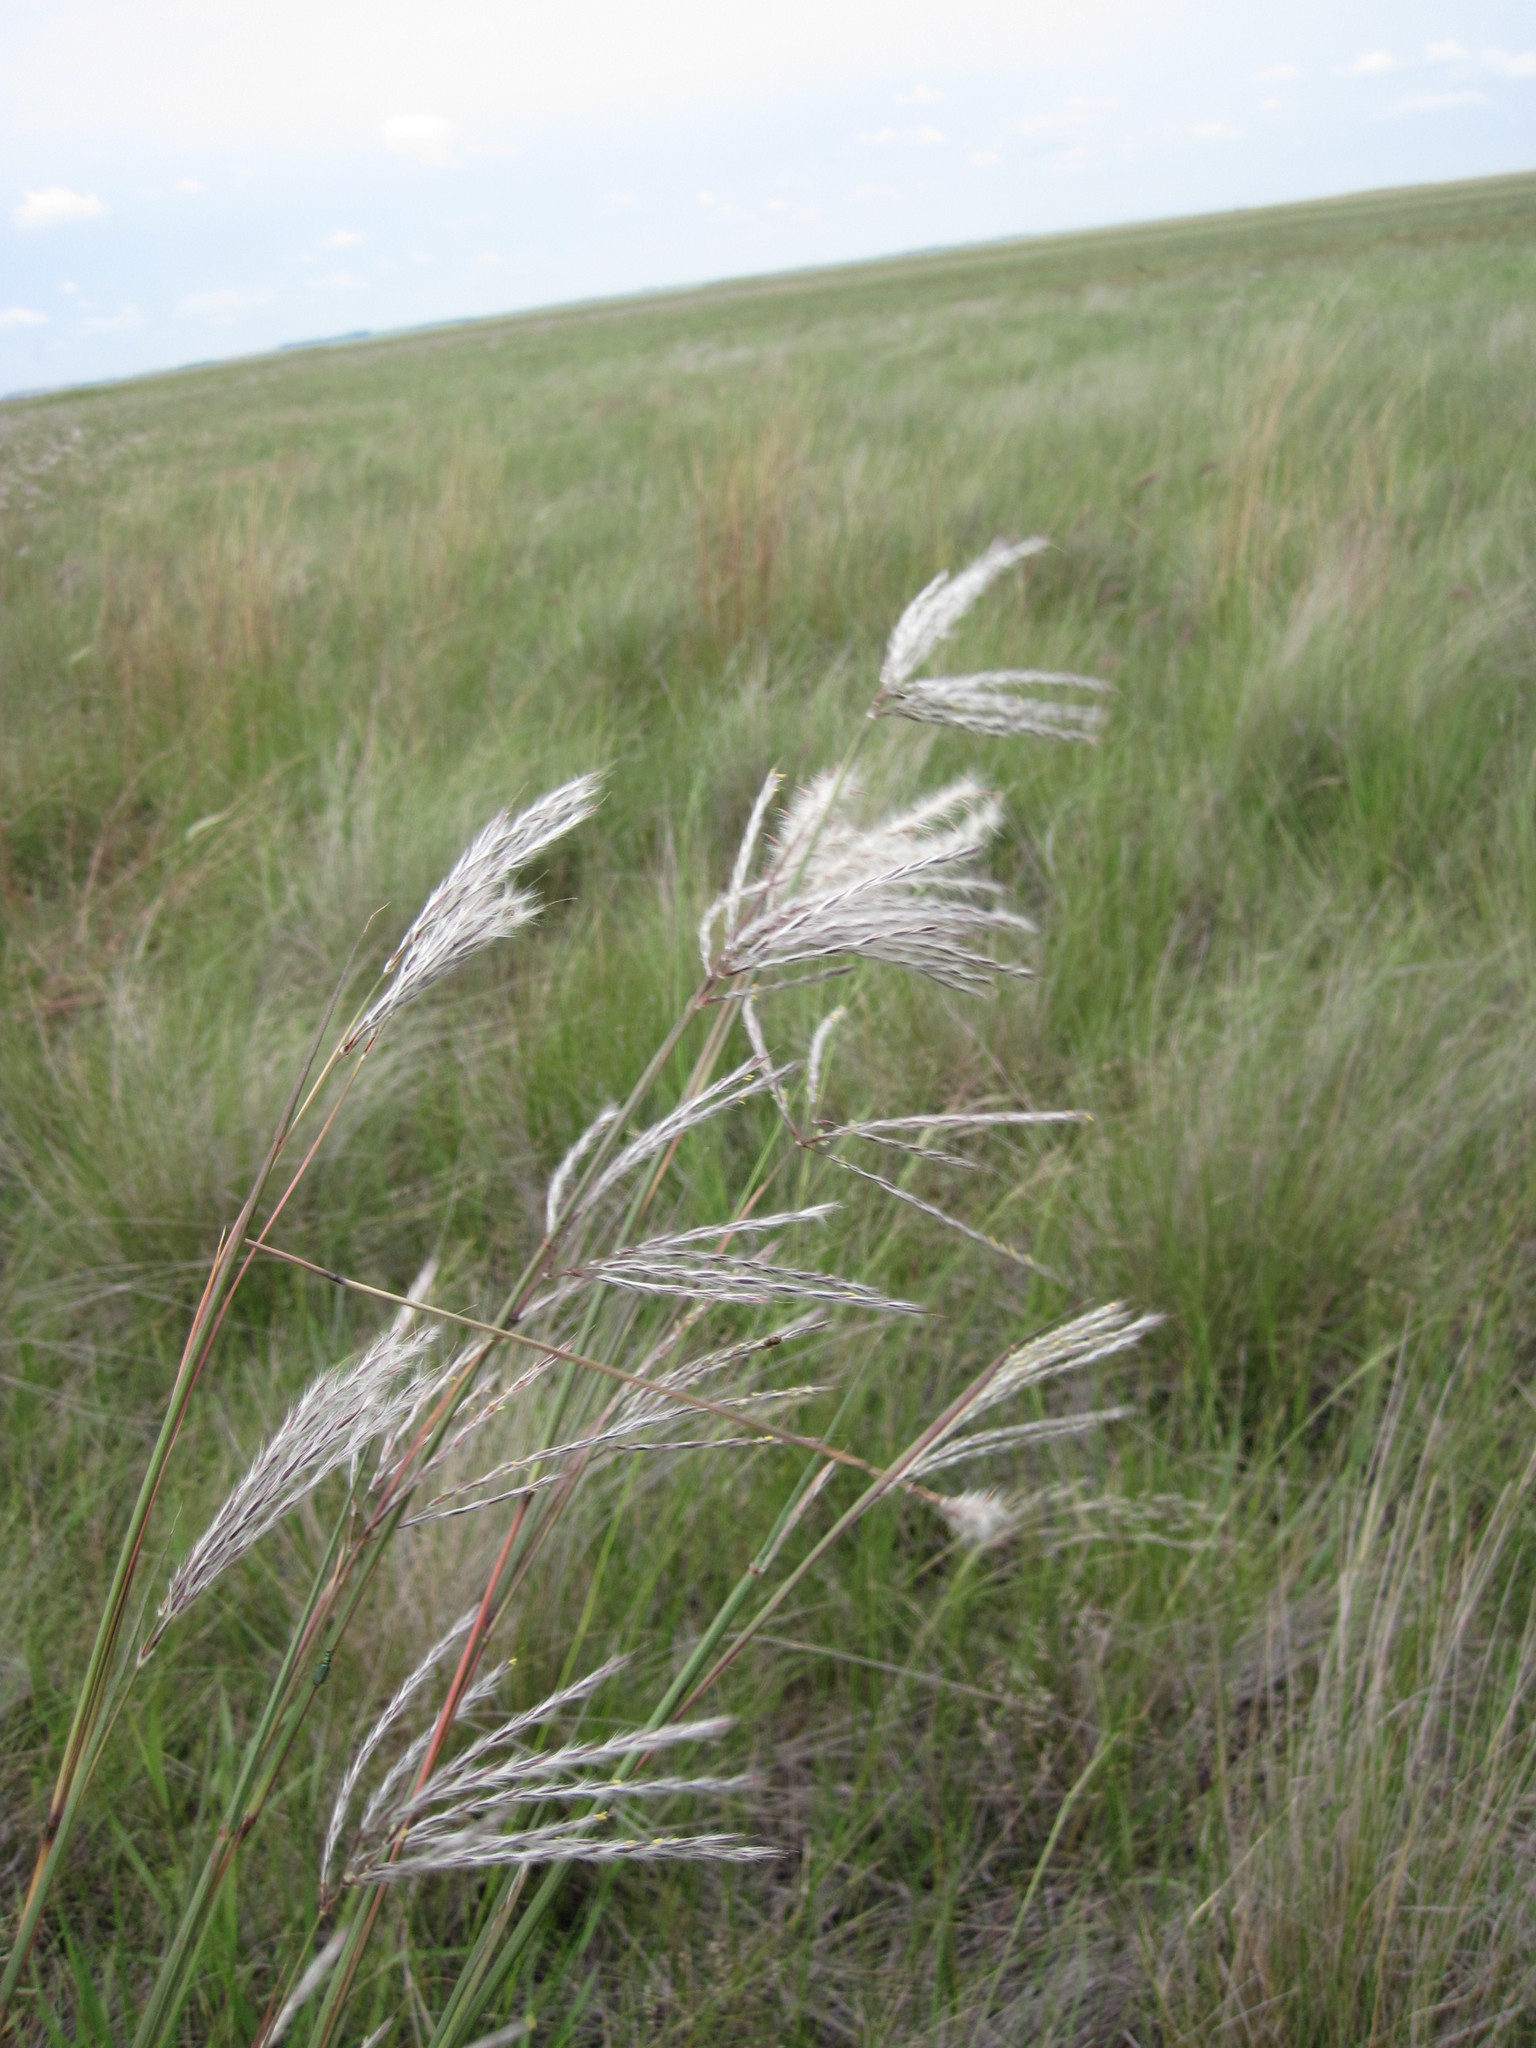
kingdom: Plantae
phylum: Tracheophyta
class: Liliopsida
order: Poales
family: Poaceae
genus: Andropogon
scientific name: Andropogon eucomus
